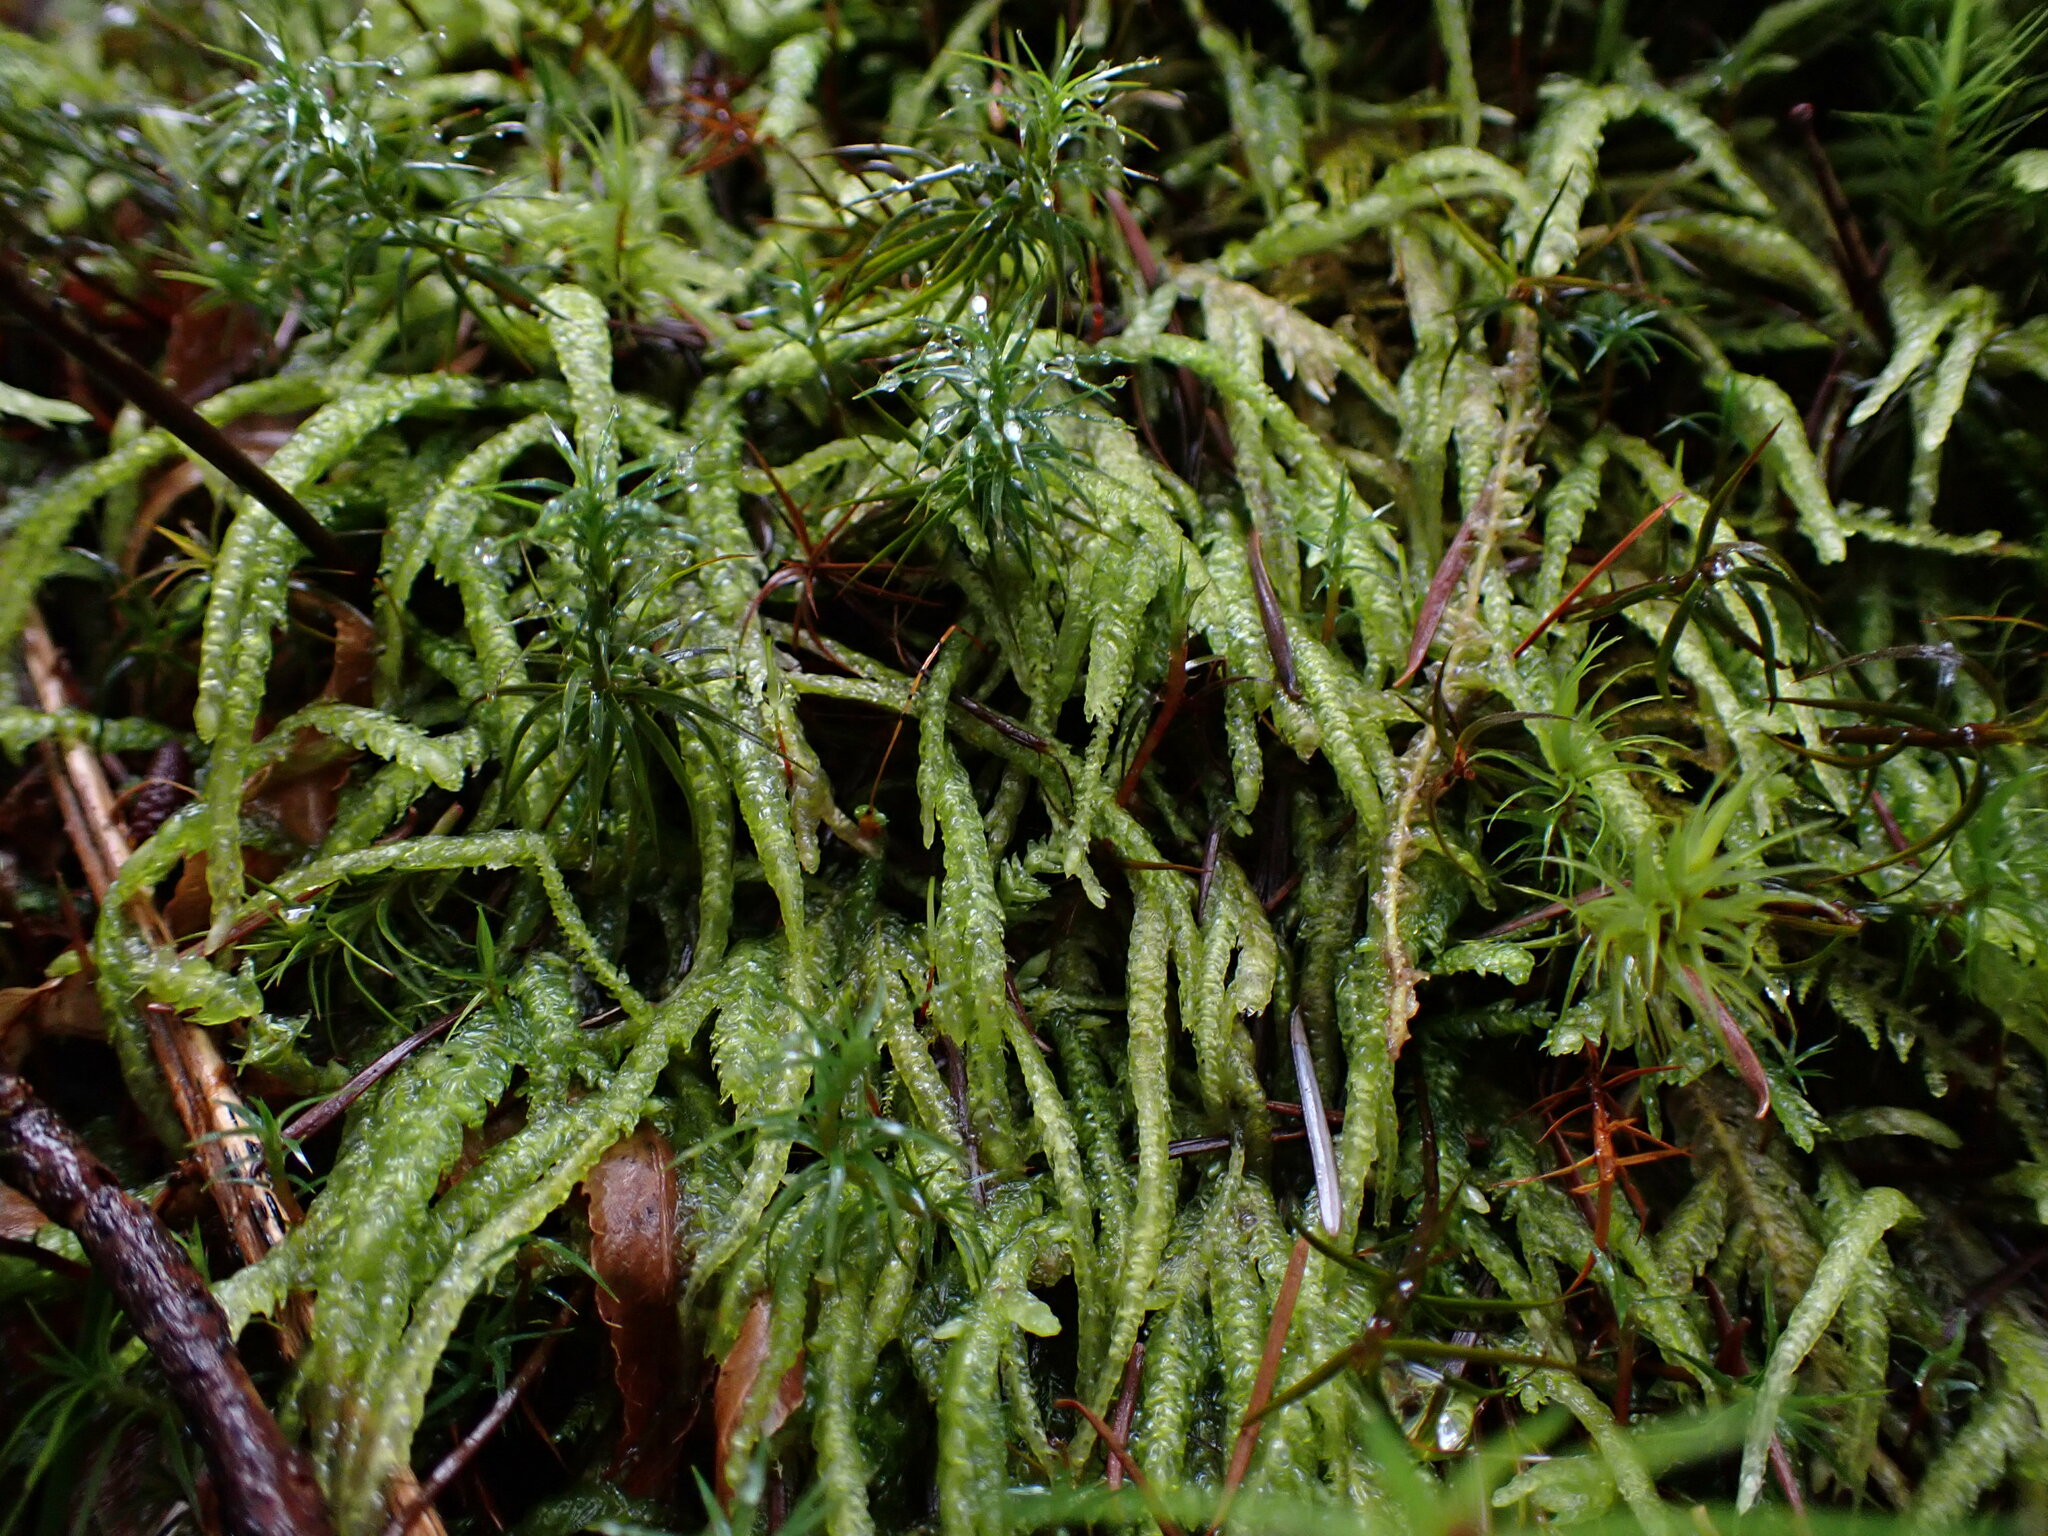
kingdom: Plantae
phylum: Bryophyta
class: Bryopsida
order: Hypnales
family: Plagiotheciaceae
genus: Plagiothecium
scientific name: Plagiothecium undulatum
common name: Waved silk-moss
